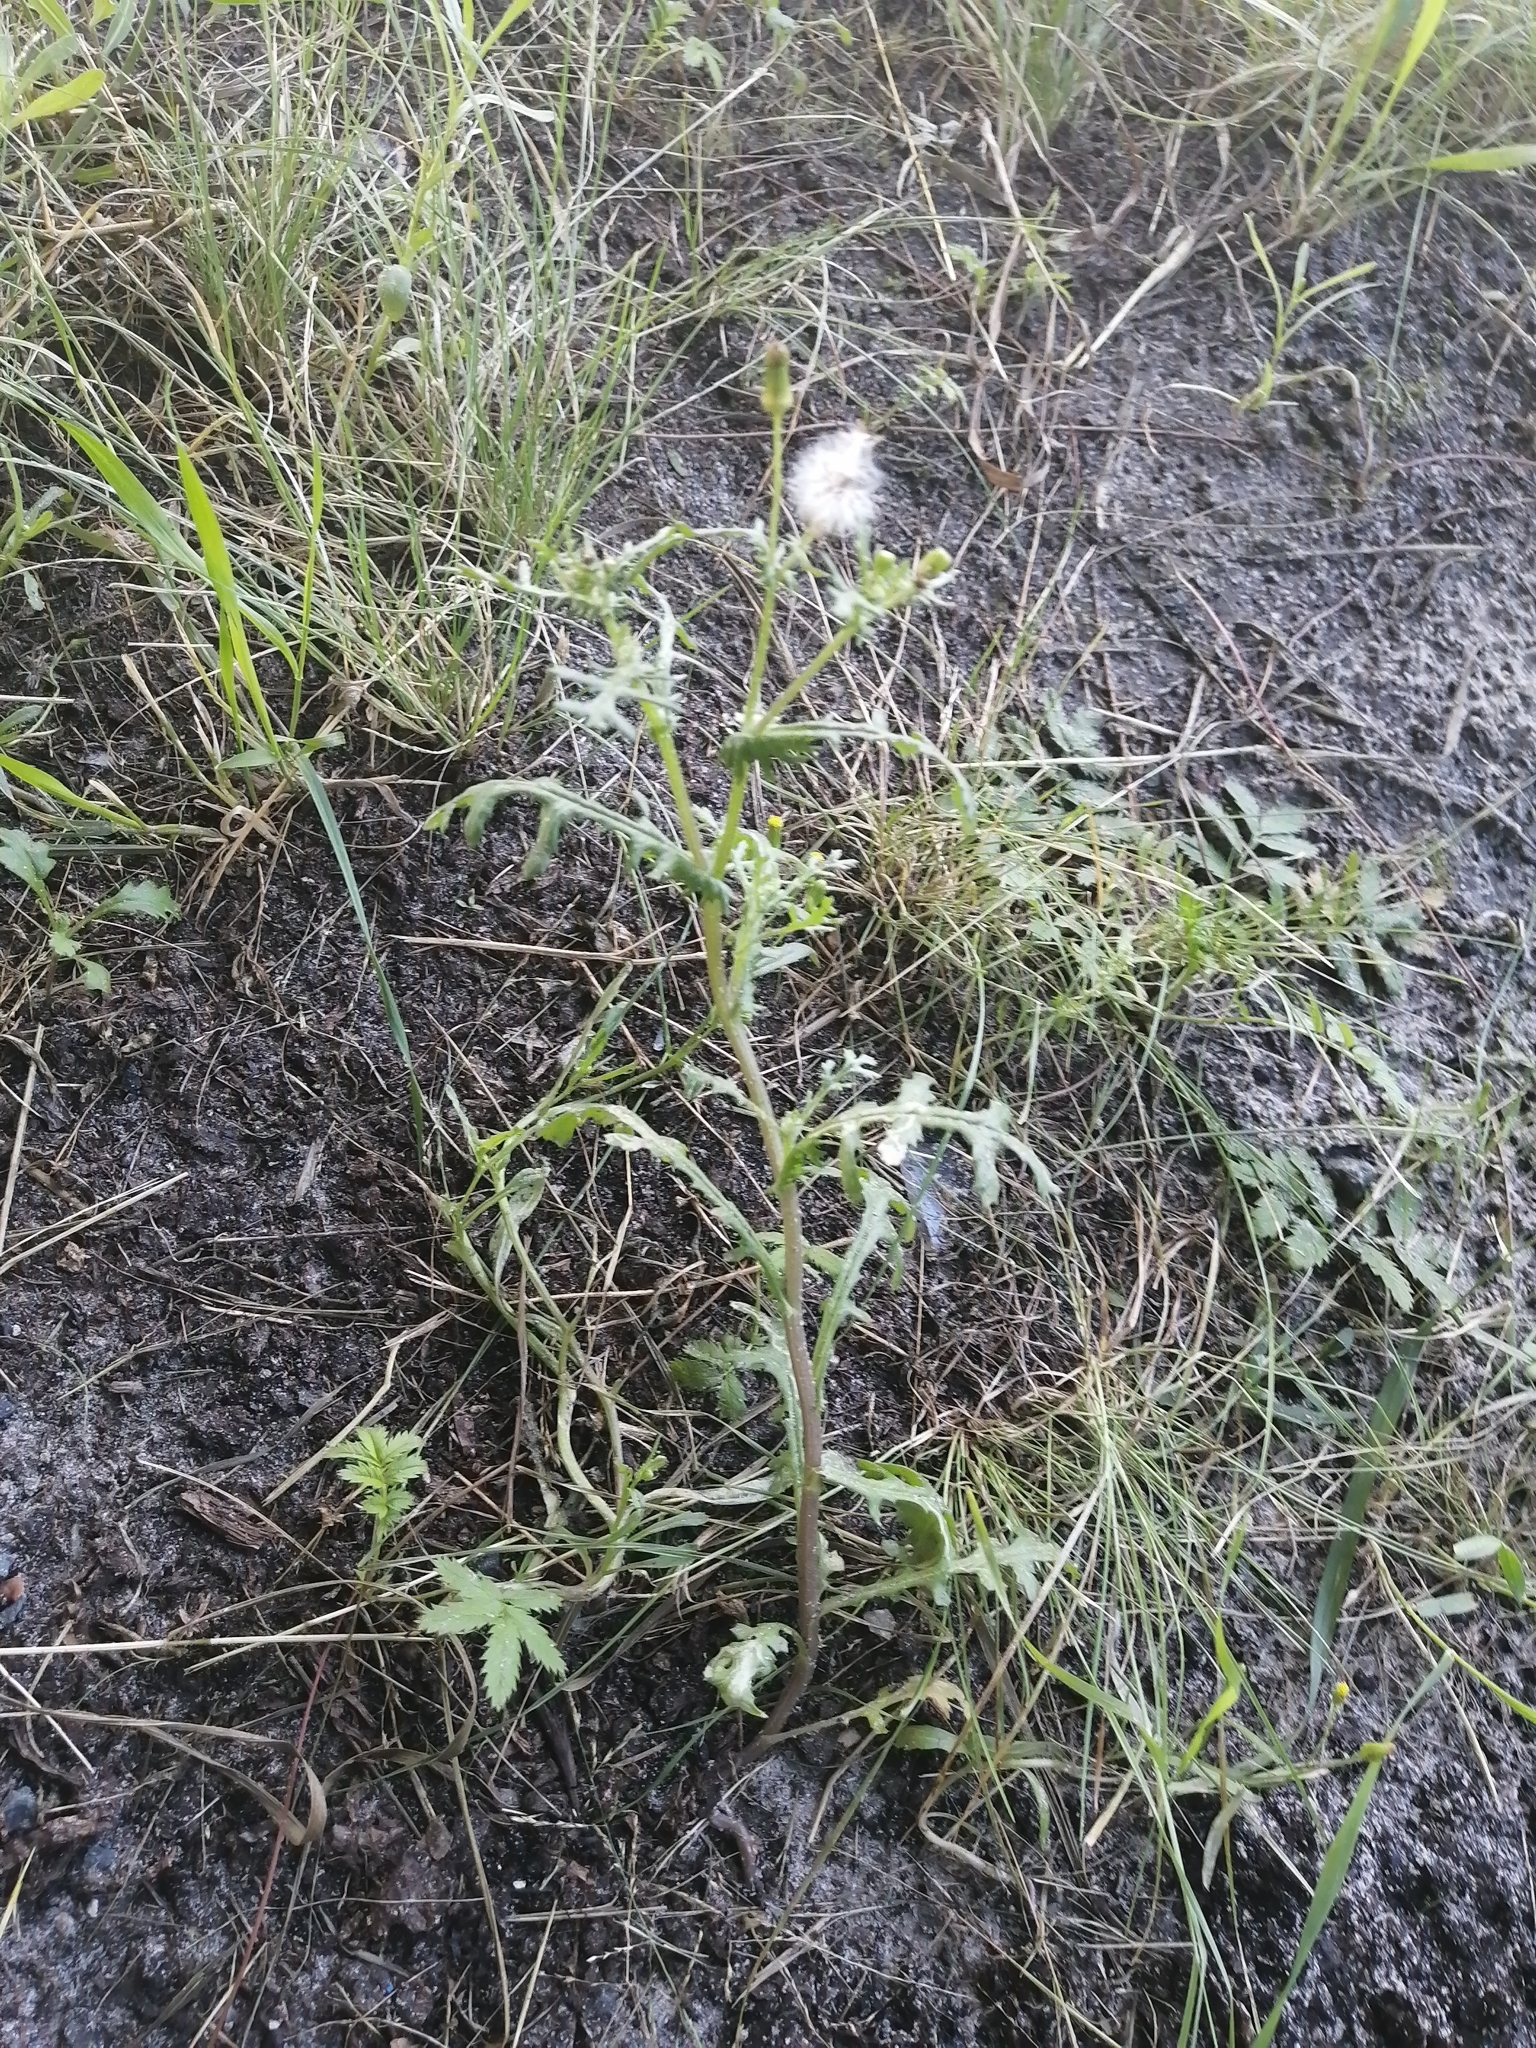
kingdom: Plantae
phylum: Tracheophyta
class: Magnoliopsida
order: Asterales
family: Asteraceae
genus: Senecio
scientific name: Senecio dubitabilis
